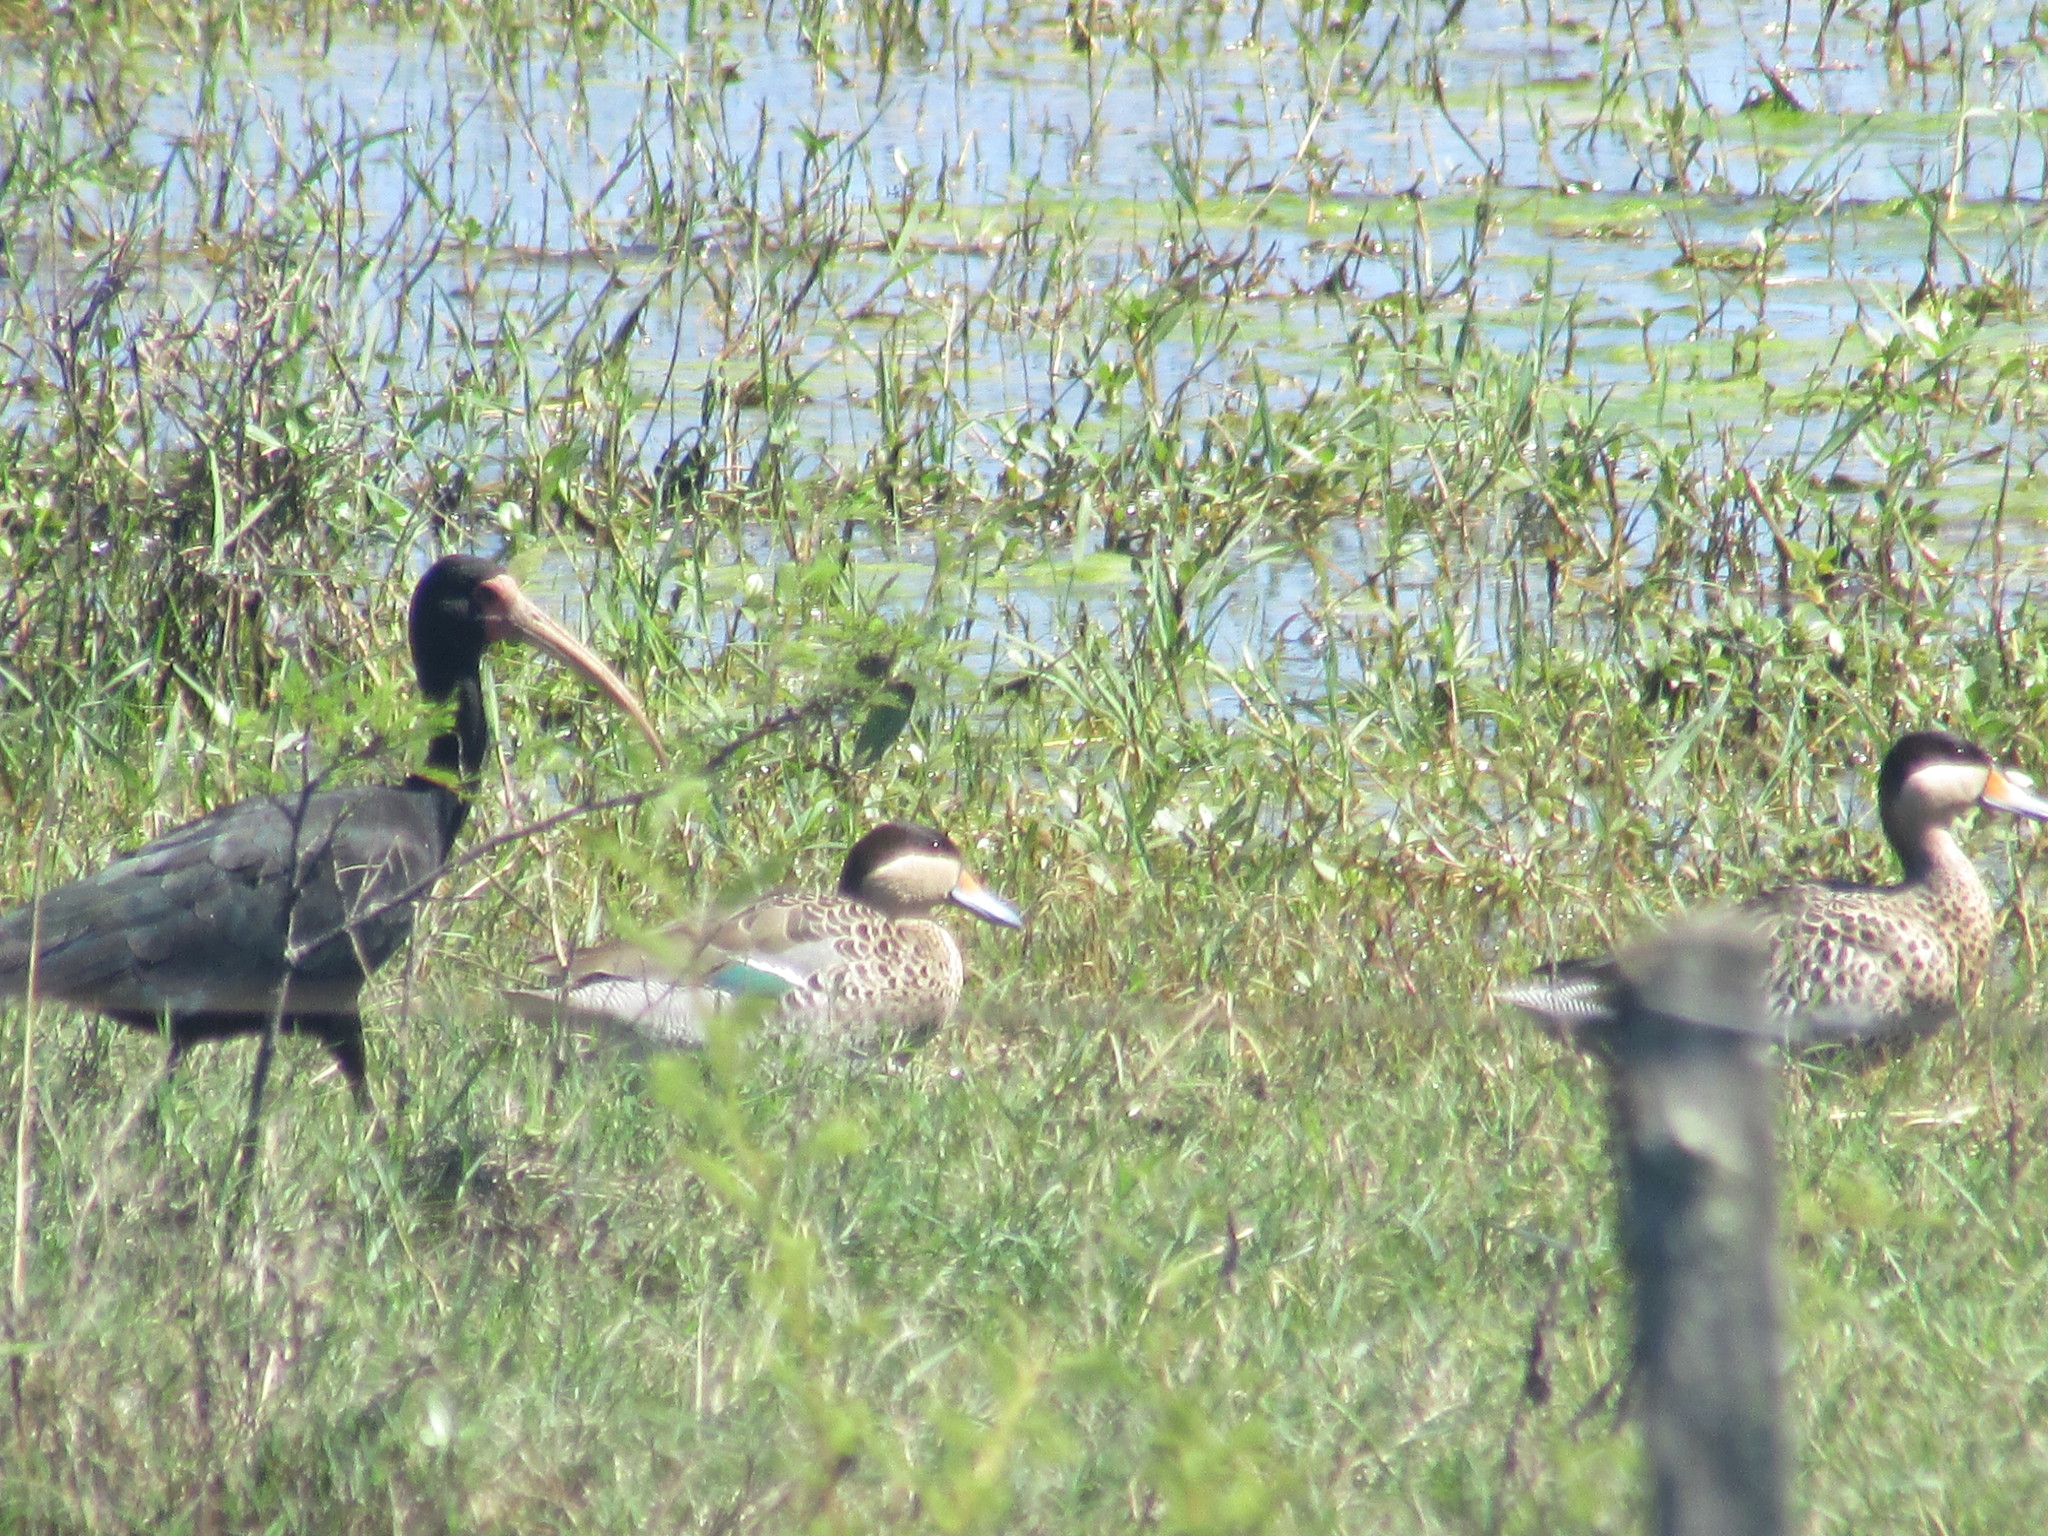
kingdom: Animalia
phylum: Chordata
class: Aves
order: Anseriformes
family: Anatidae
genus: Spatula
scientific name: Spatula versicolor
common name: Silver teal
